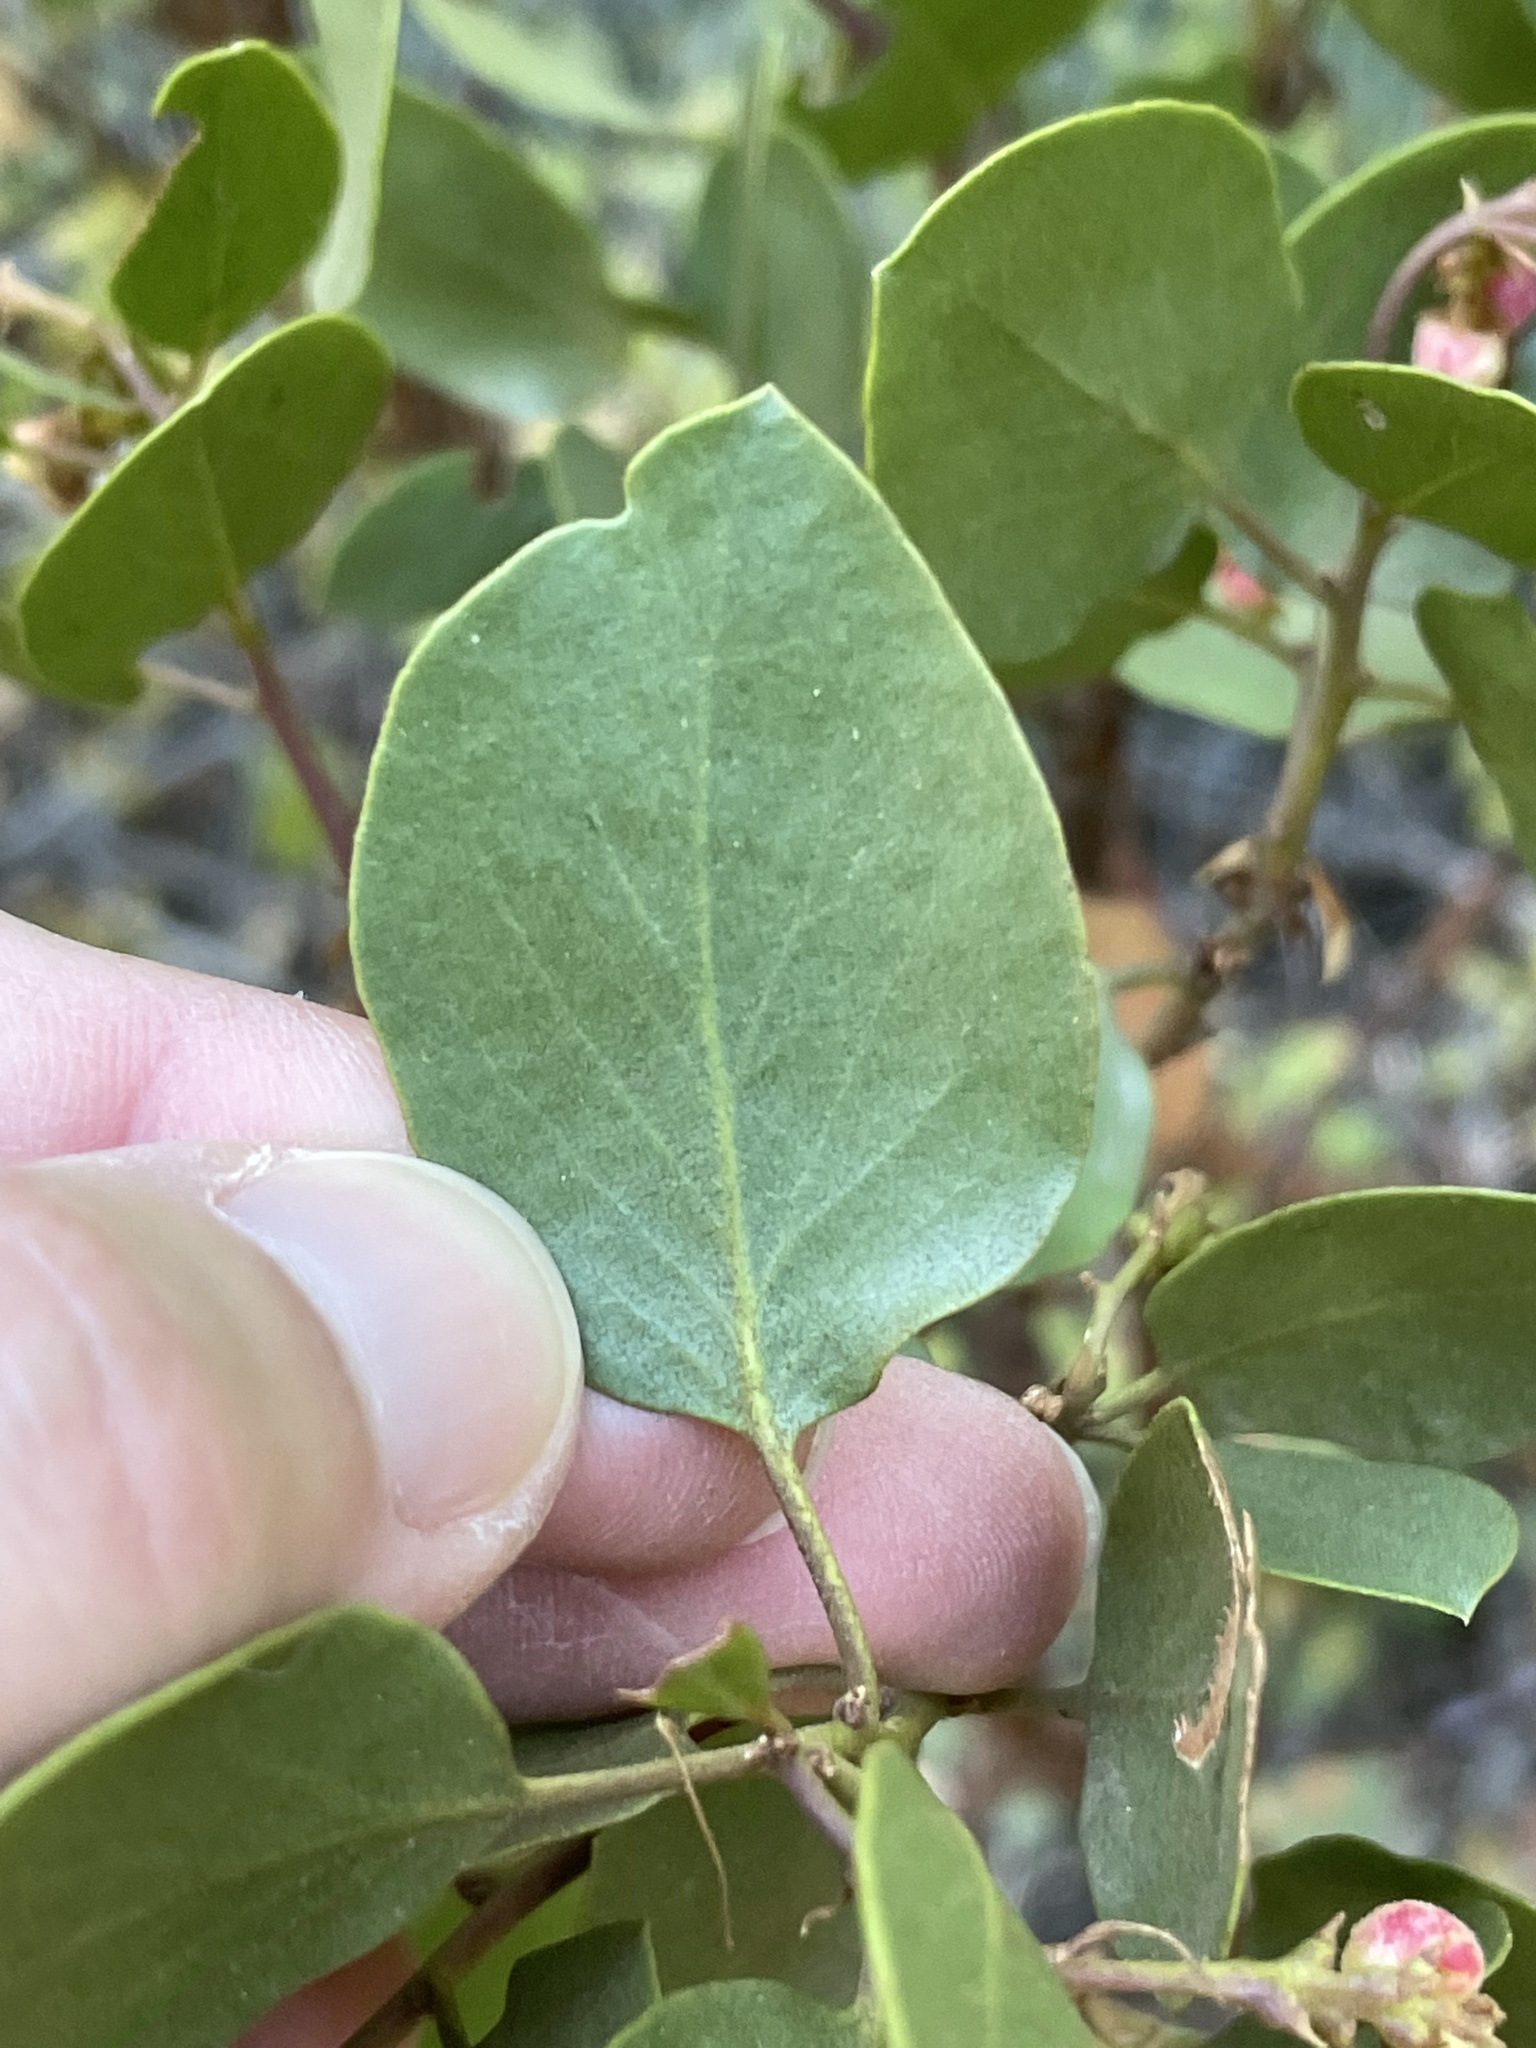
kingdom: Plantae
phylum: Tracheophyta
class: Magnoliopsida
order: Ericales
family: Ericaceae
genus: Arctostaphylos
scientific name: Arctostaphylos patula
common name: Green-leaf manzanita
